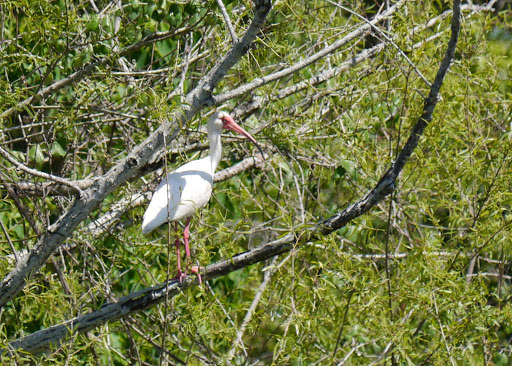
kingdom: Animalia
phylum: Chordata
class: Aves
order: Pelecaniformes
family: Threskiornithidae
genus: Eudocimus
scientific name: Eudocimus albus
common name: White ibis
